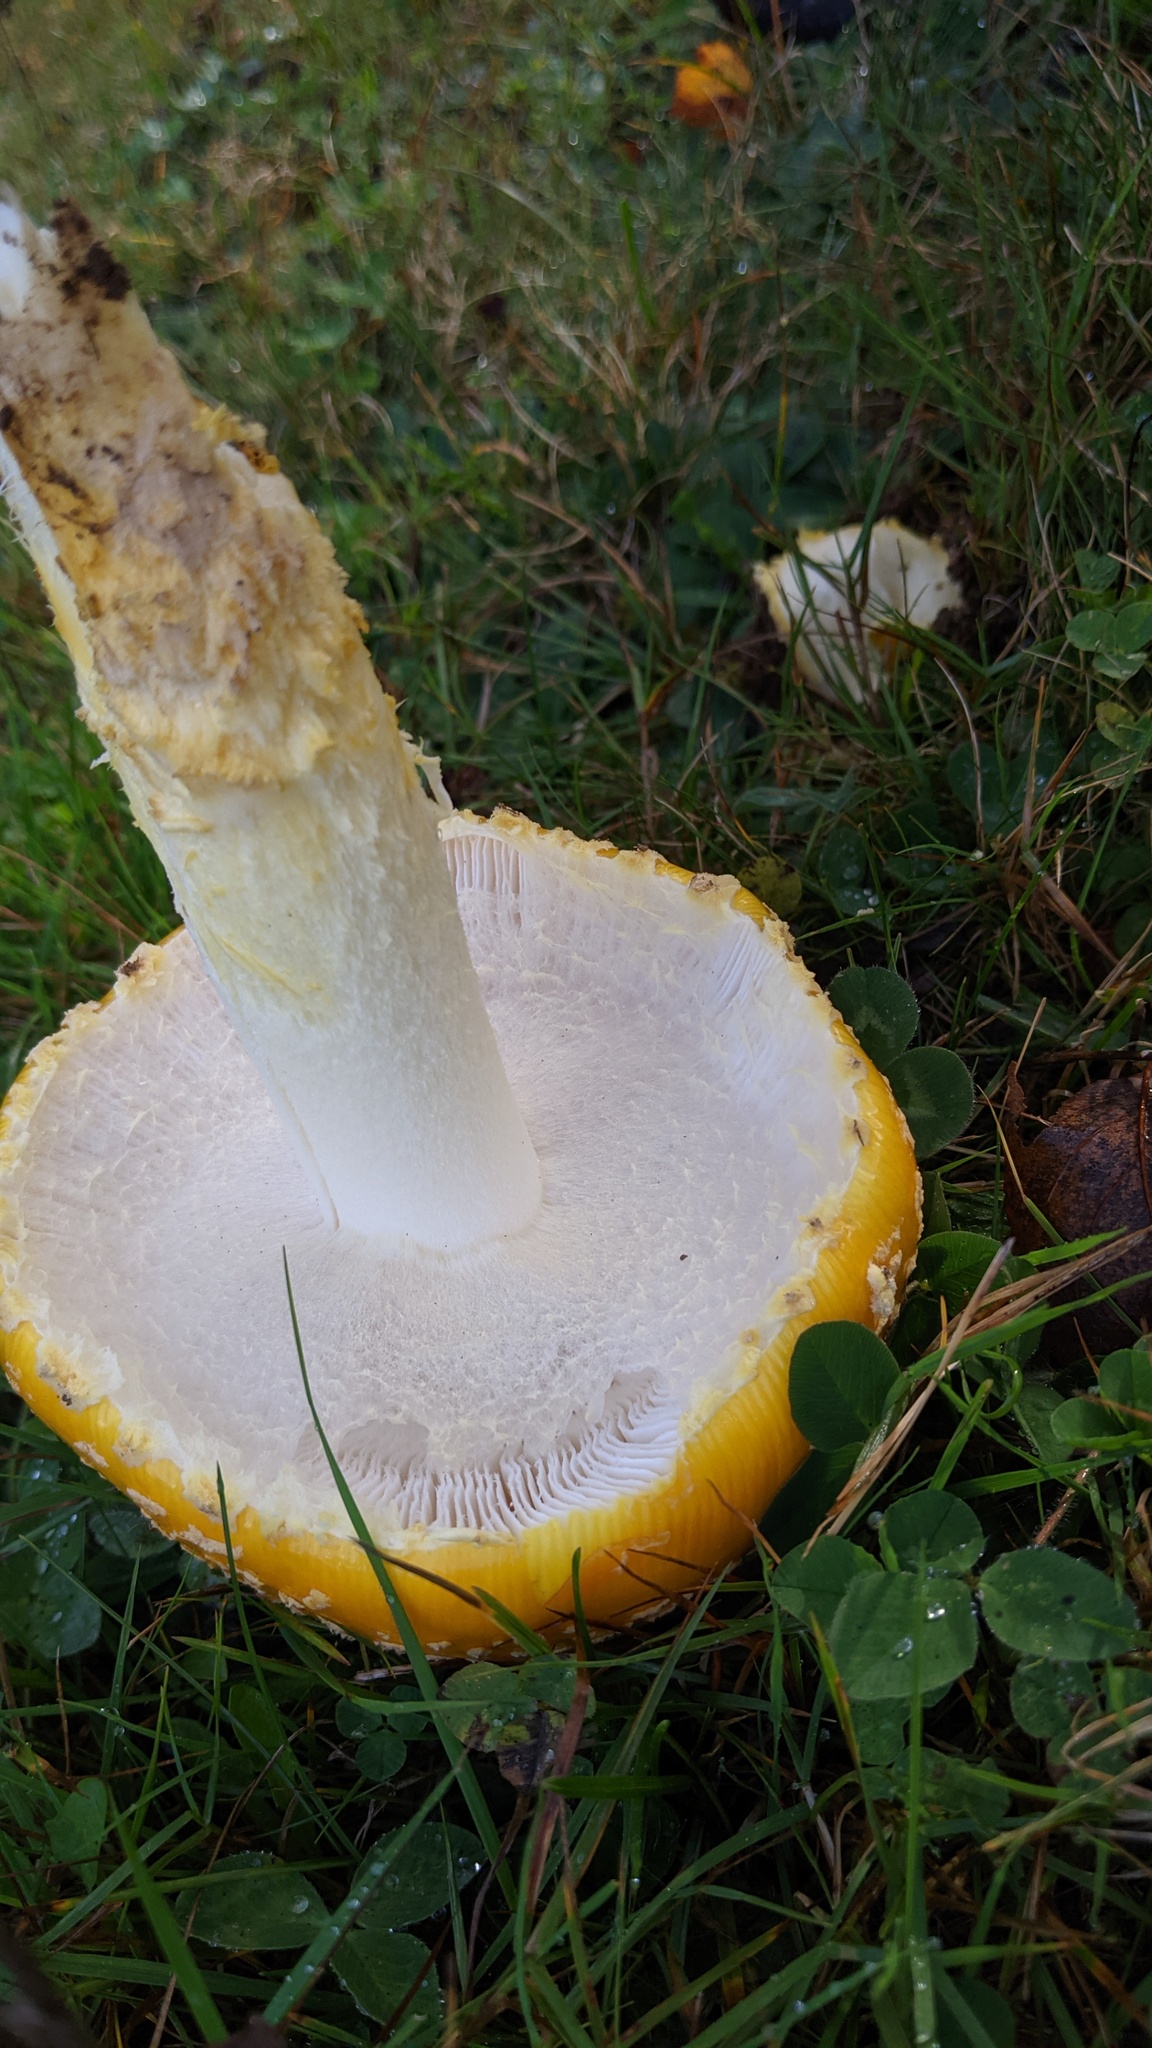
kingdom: Fungi
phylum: Basidiomycota
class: Agaricomycetes
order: Agaricales
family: Amanitaceae
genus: Amanita
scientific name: Amanita muscaria
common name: Fly agaric
